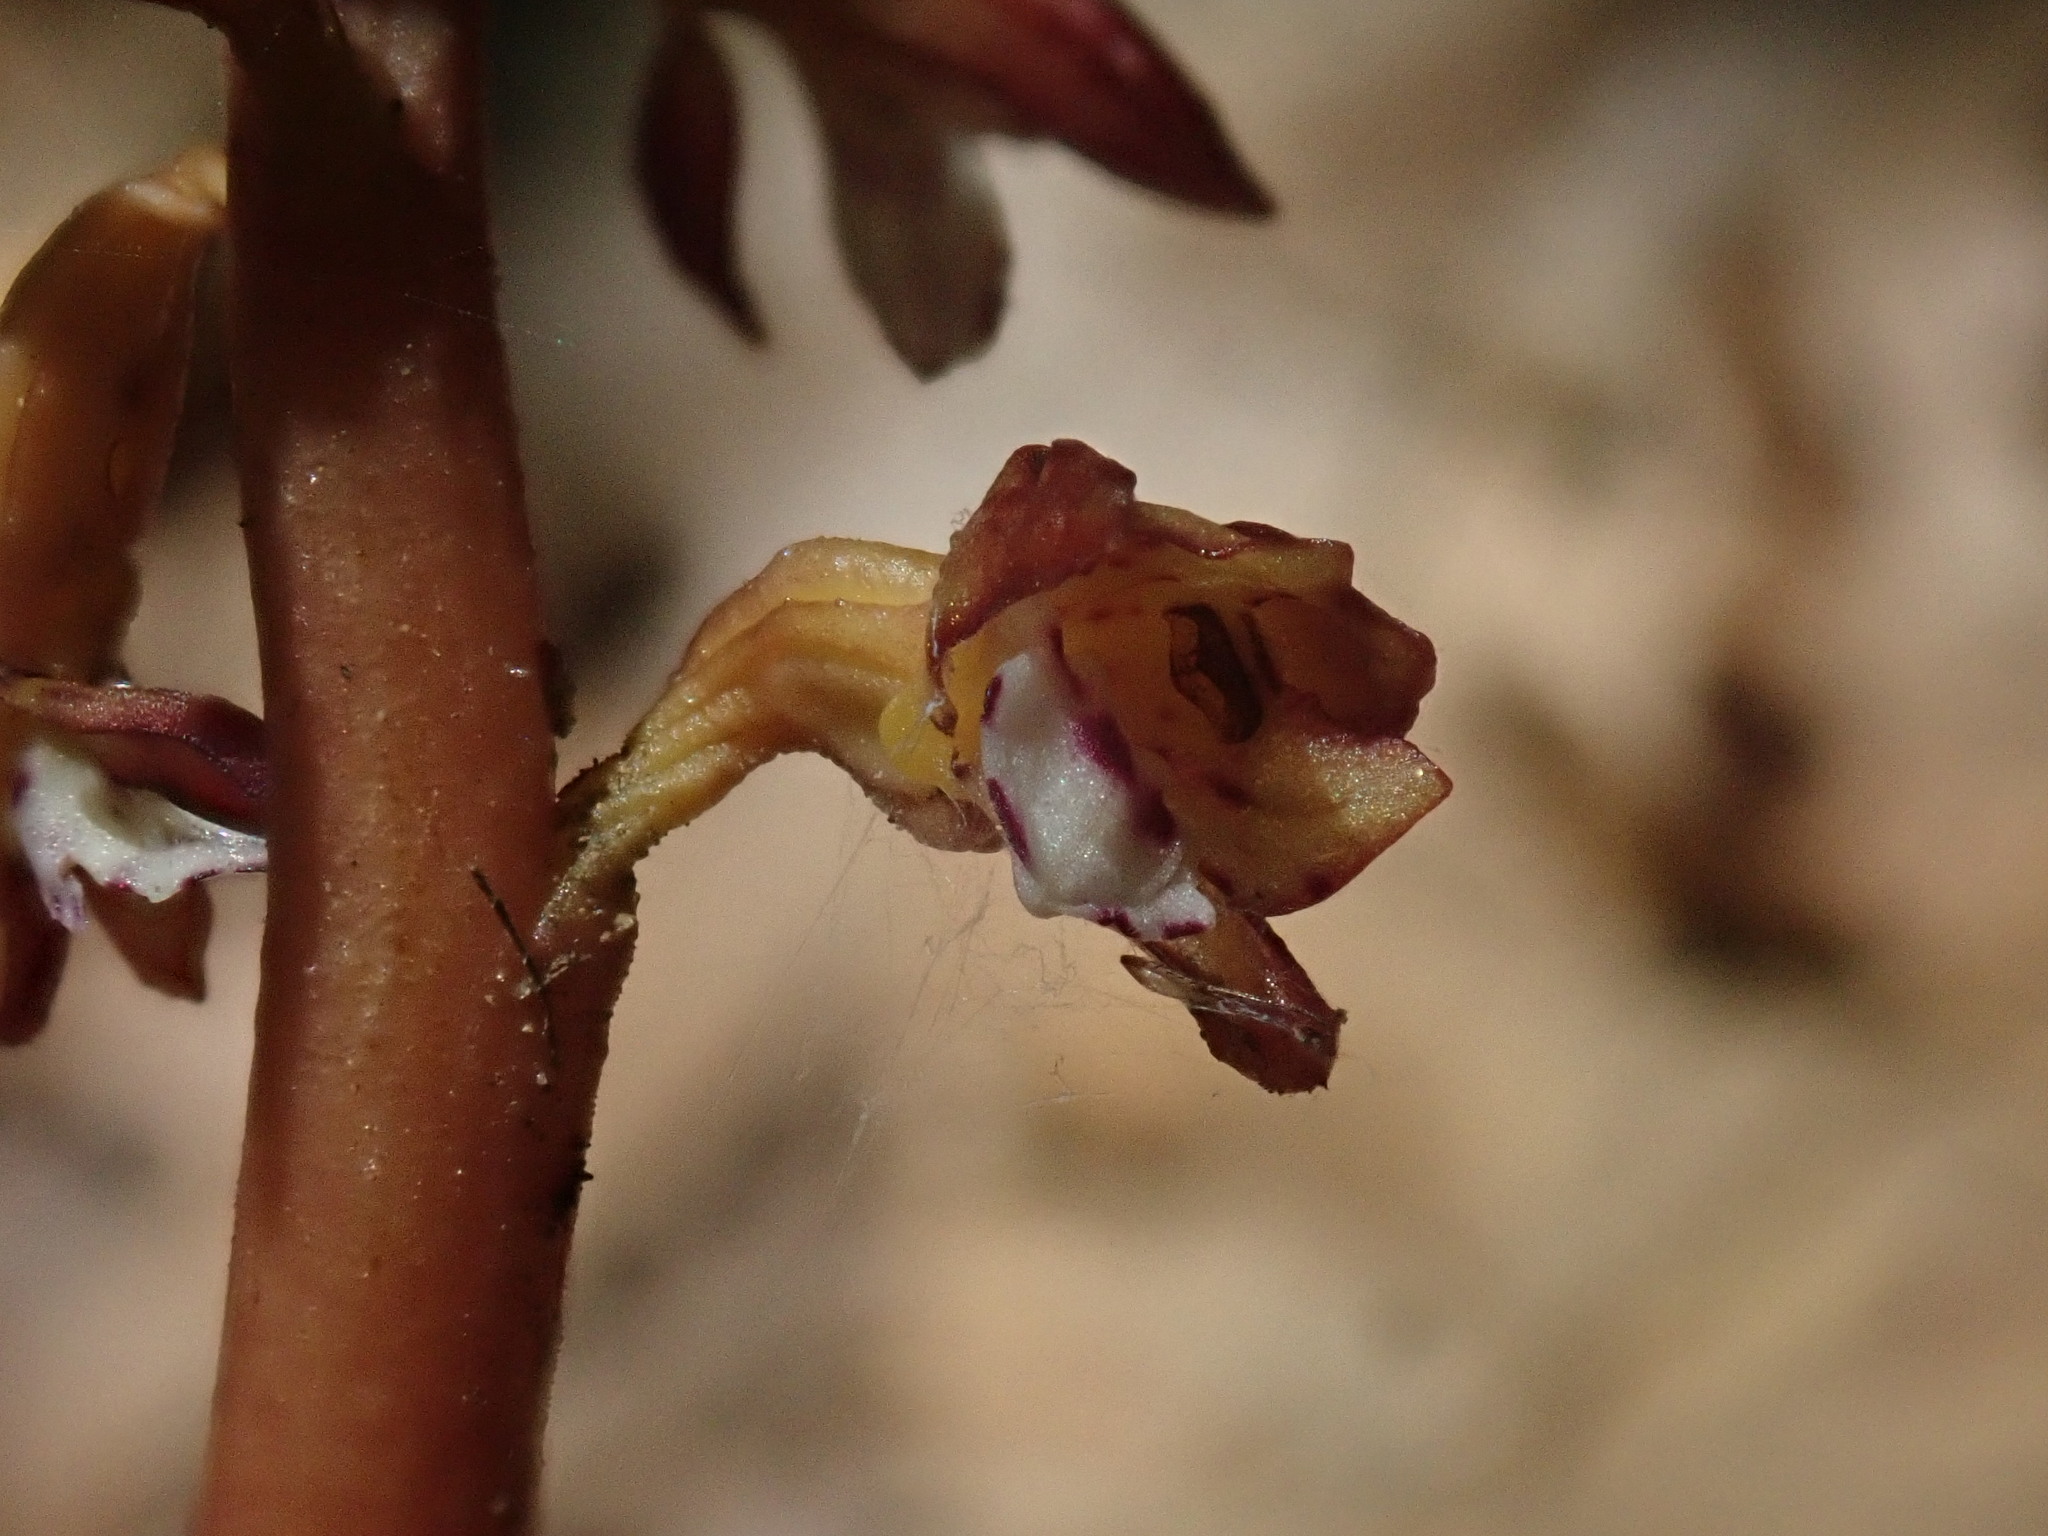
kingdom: Plantae
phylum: Tracheophyta
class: Liliopsida
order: Asparagales
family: Orchidaceae
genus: Corallorhiza
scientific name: Corallorhiza maculata
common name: Spotted coralroot
